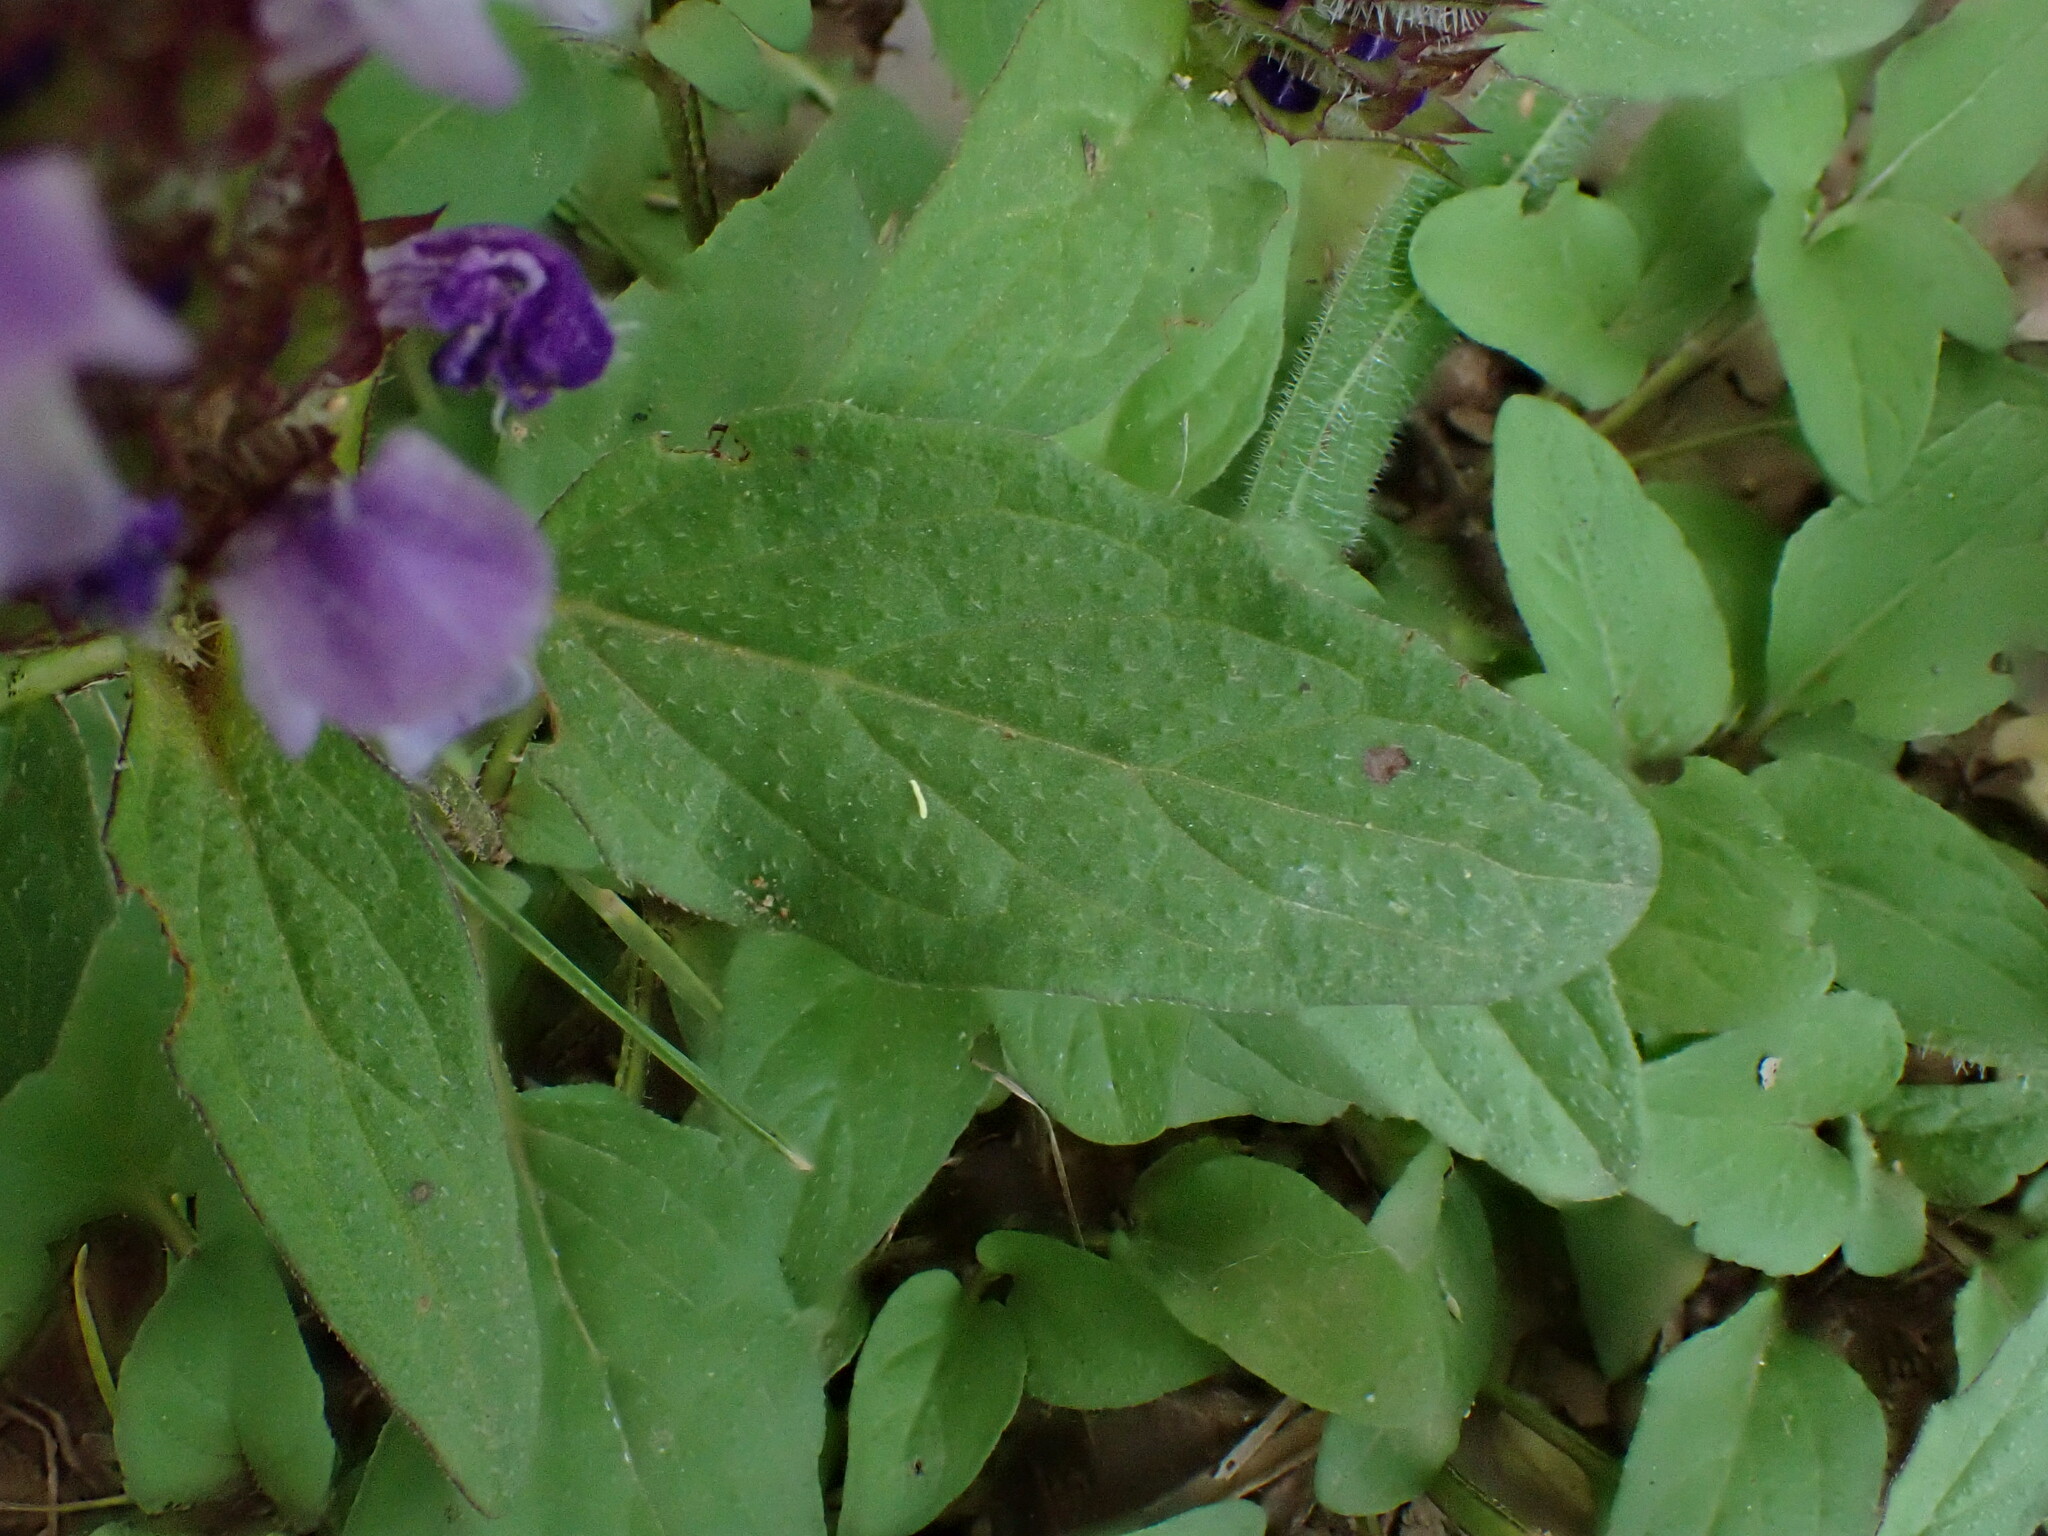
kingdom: Plantae
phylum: Tracheophyta
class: Magnoliopsida
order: Lamiales
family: Lamiaceae
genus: Prunella
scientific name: Prunella vulgaris
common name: Heal-all
